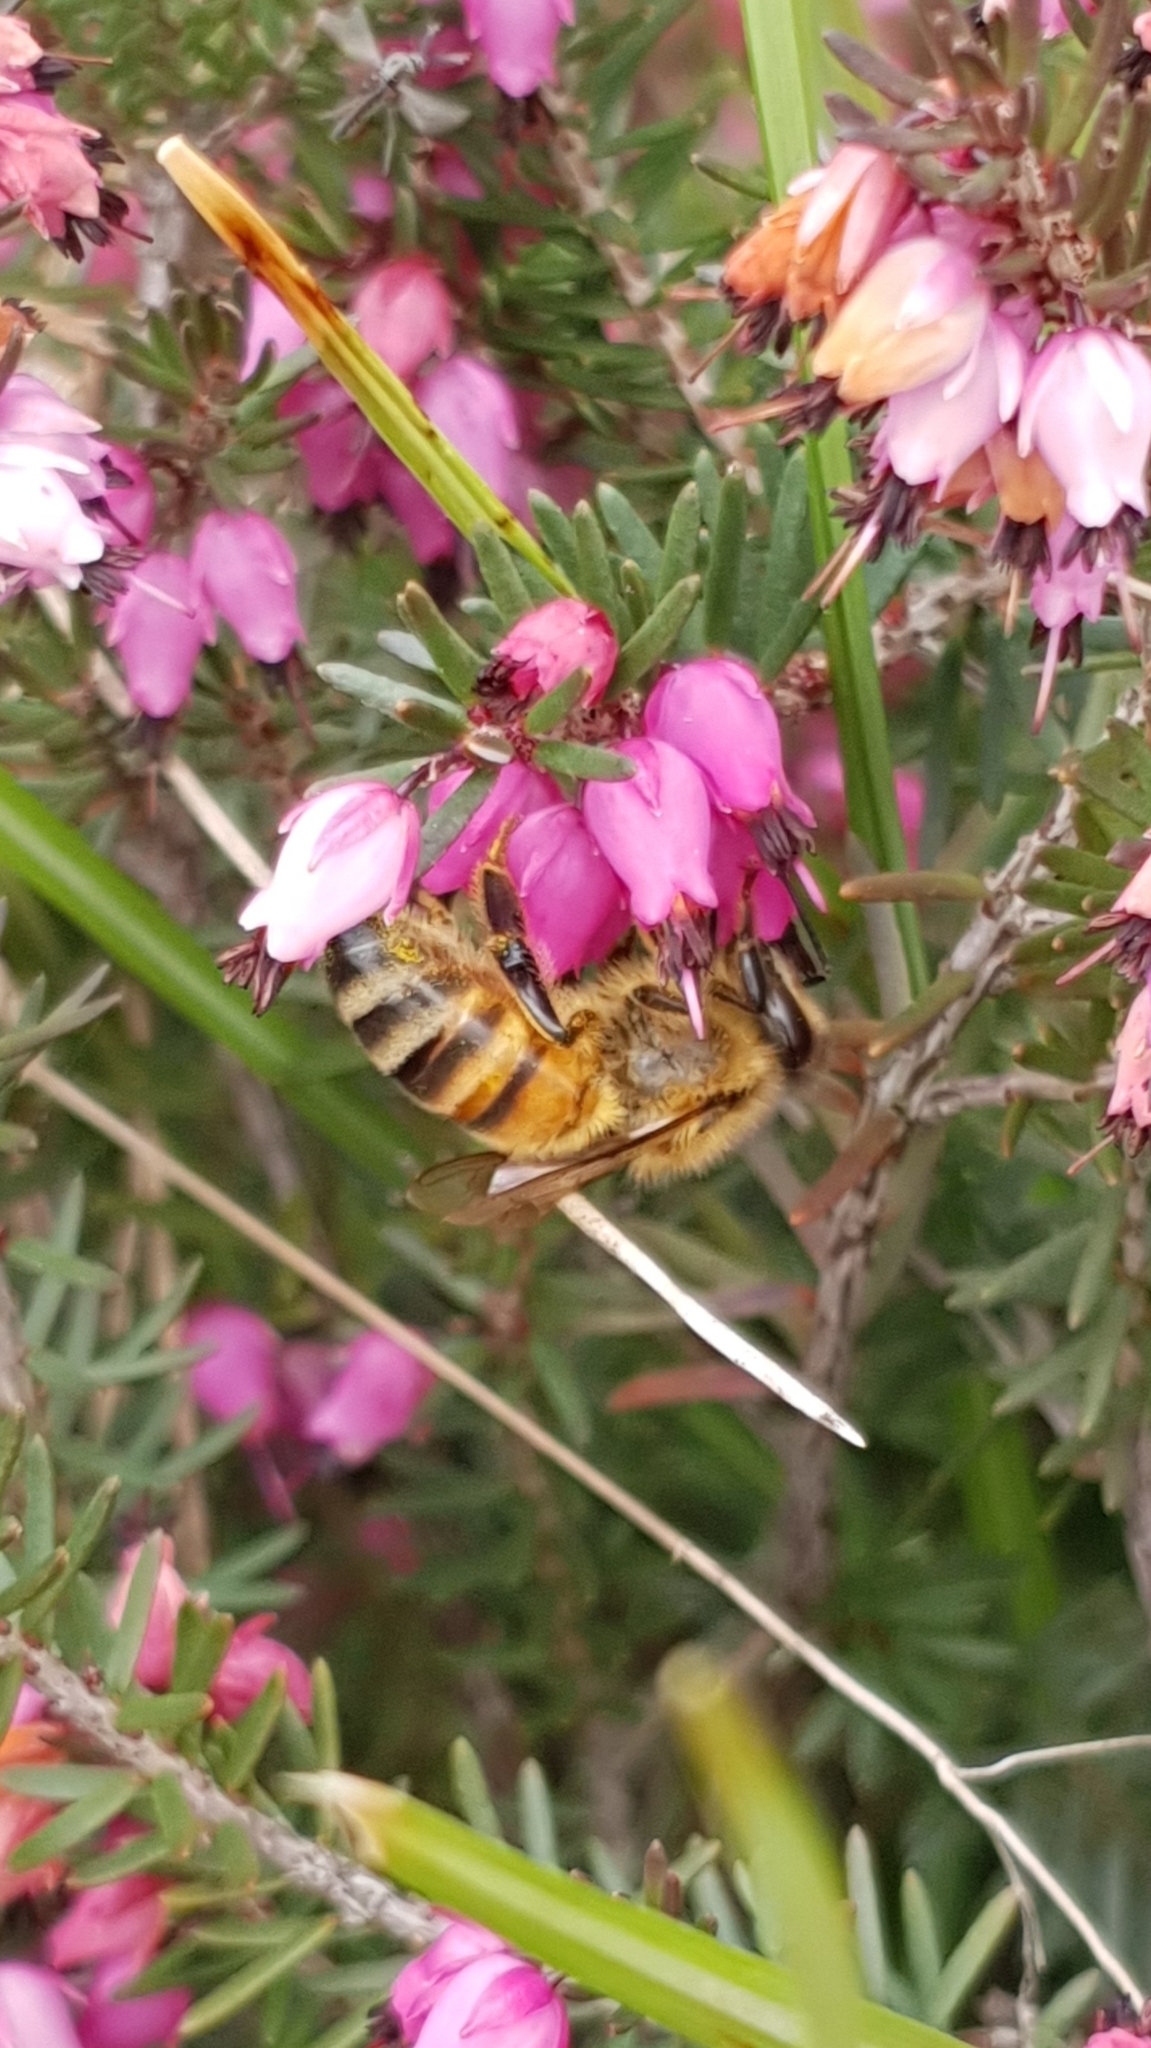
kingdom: Animalia
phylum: Arthropoda
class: Insecta
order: Hymenoptera
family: Apidae
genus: Apis
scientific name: Apis mellifera
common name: Honey bee
